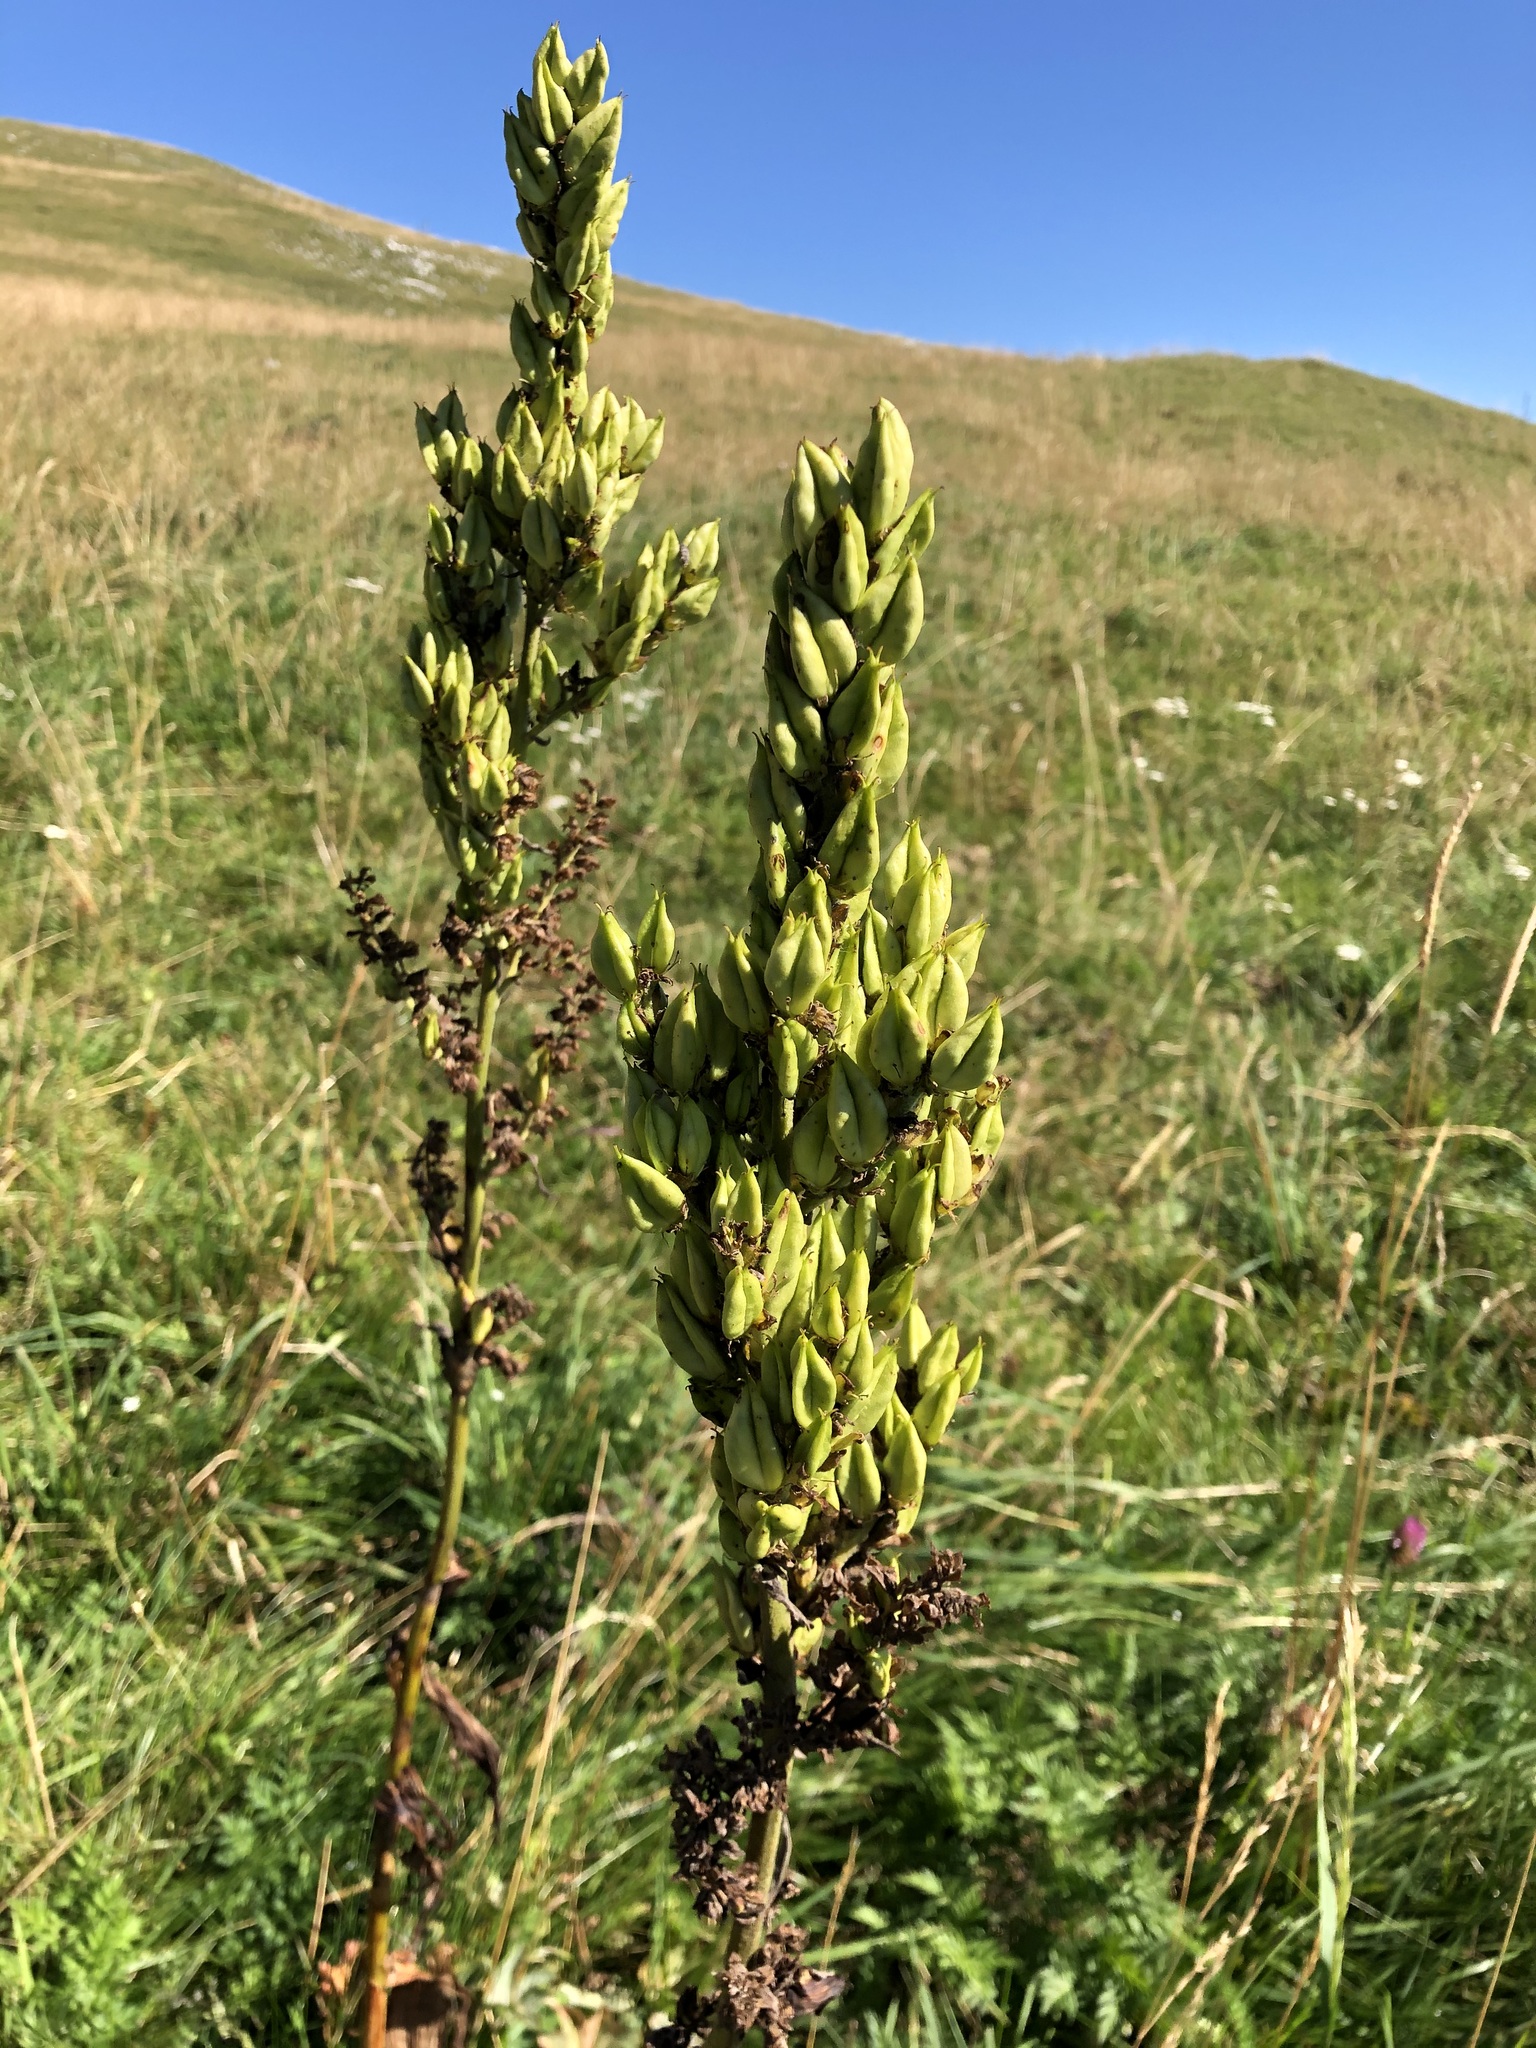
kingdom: Plantae
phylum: Tracheophyta
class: Liliopsida
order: Liliales
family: Melanthiaceae
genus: Veratrum
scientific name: Veratrum album
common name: White veratrum
